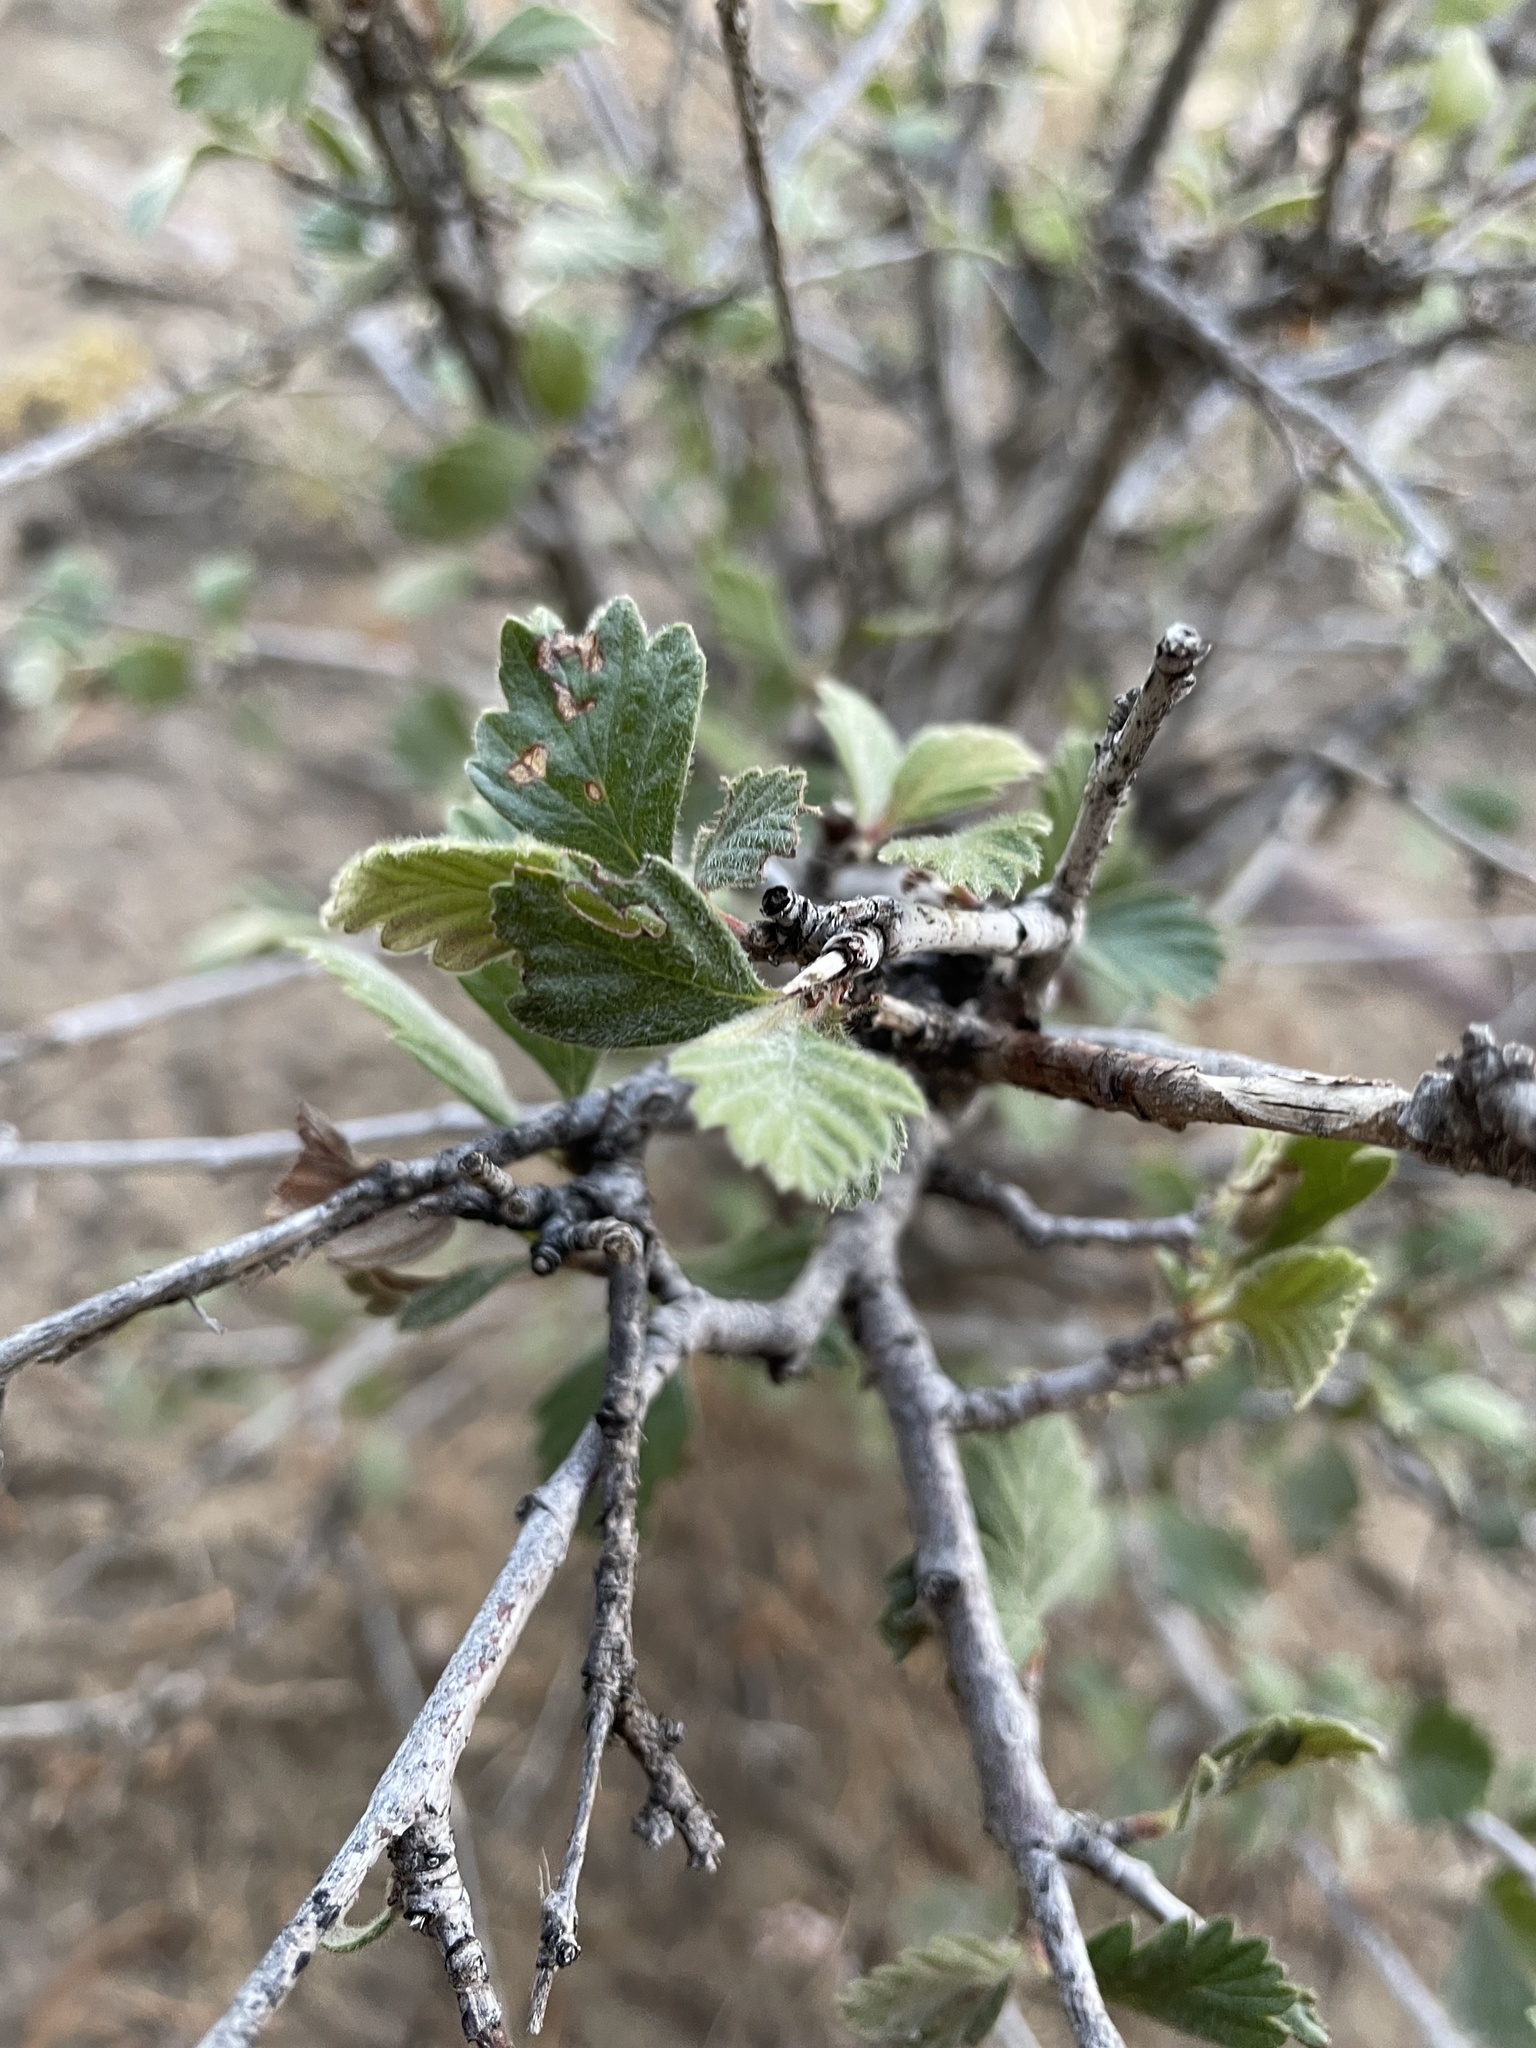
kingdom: Plantae
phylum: Tracheophyta
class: Magnoliopsida
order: Rosales
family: Rosaceae
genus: Cercocarpus
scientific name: Cercocarpus montanus
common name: Alder-leaf cercocarpus
